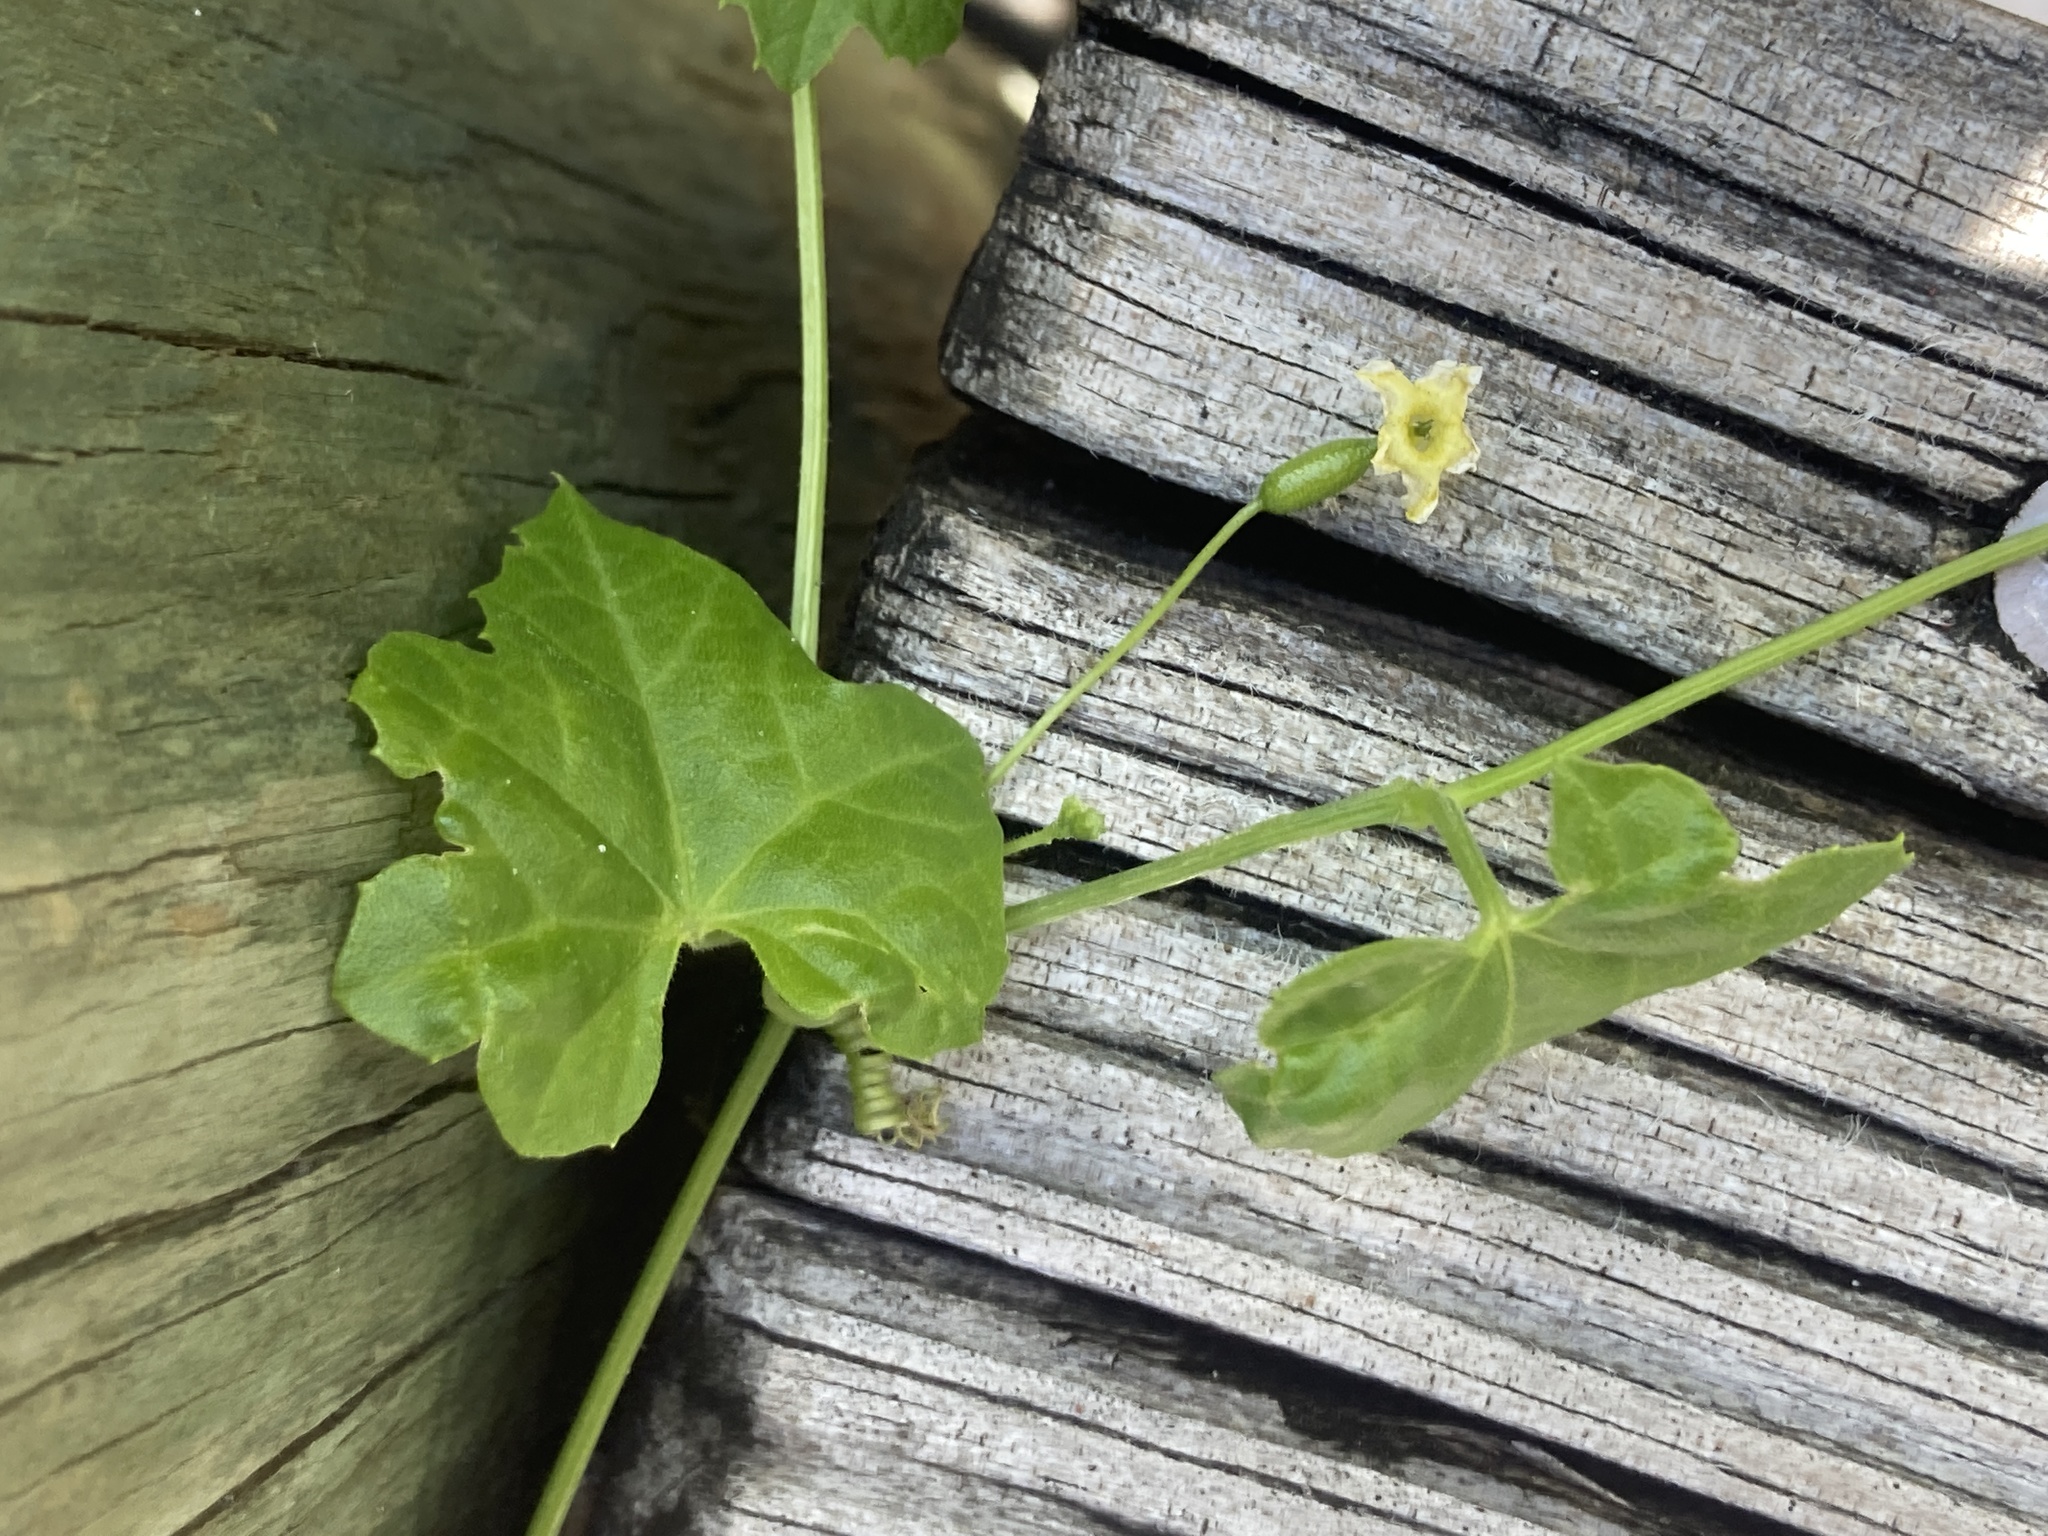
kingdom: Plantae
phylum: Tracheophyta
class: Magnoliopsida
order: Cucurbitales
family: Cucurbitaceae
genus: Melothria
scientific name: Melothria pendula
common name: Creeping-cucumber
